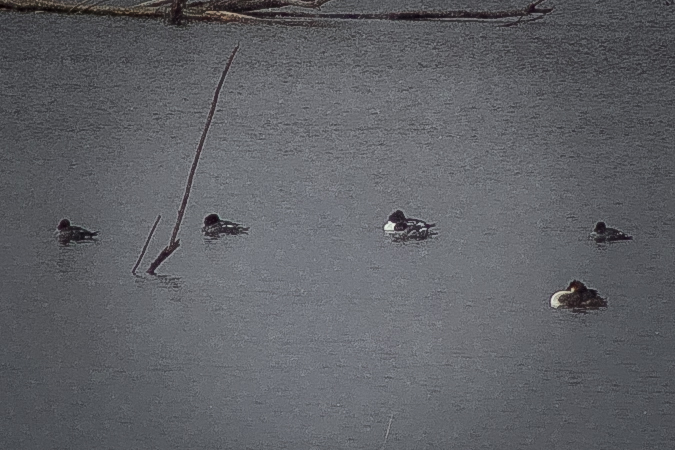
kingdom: Animalia
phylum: Chordata
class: Aves
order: Anseriformes
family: Anatidae
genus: Bucephala
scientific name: Bucephala clangula
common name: Common goldeneye
